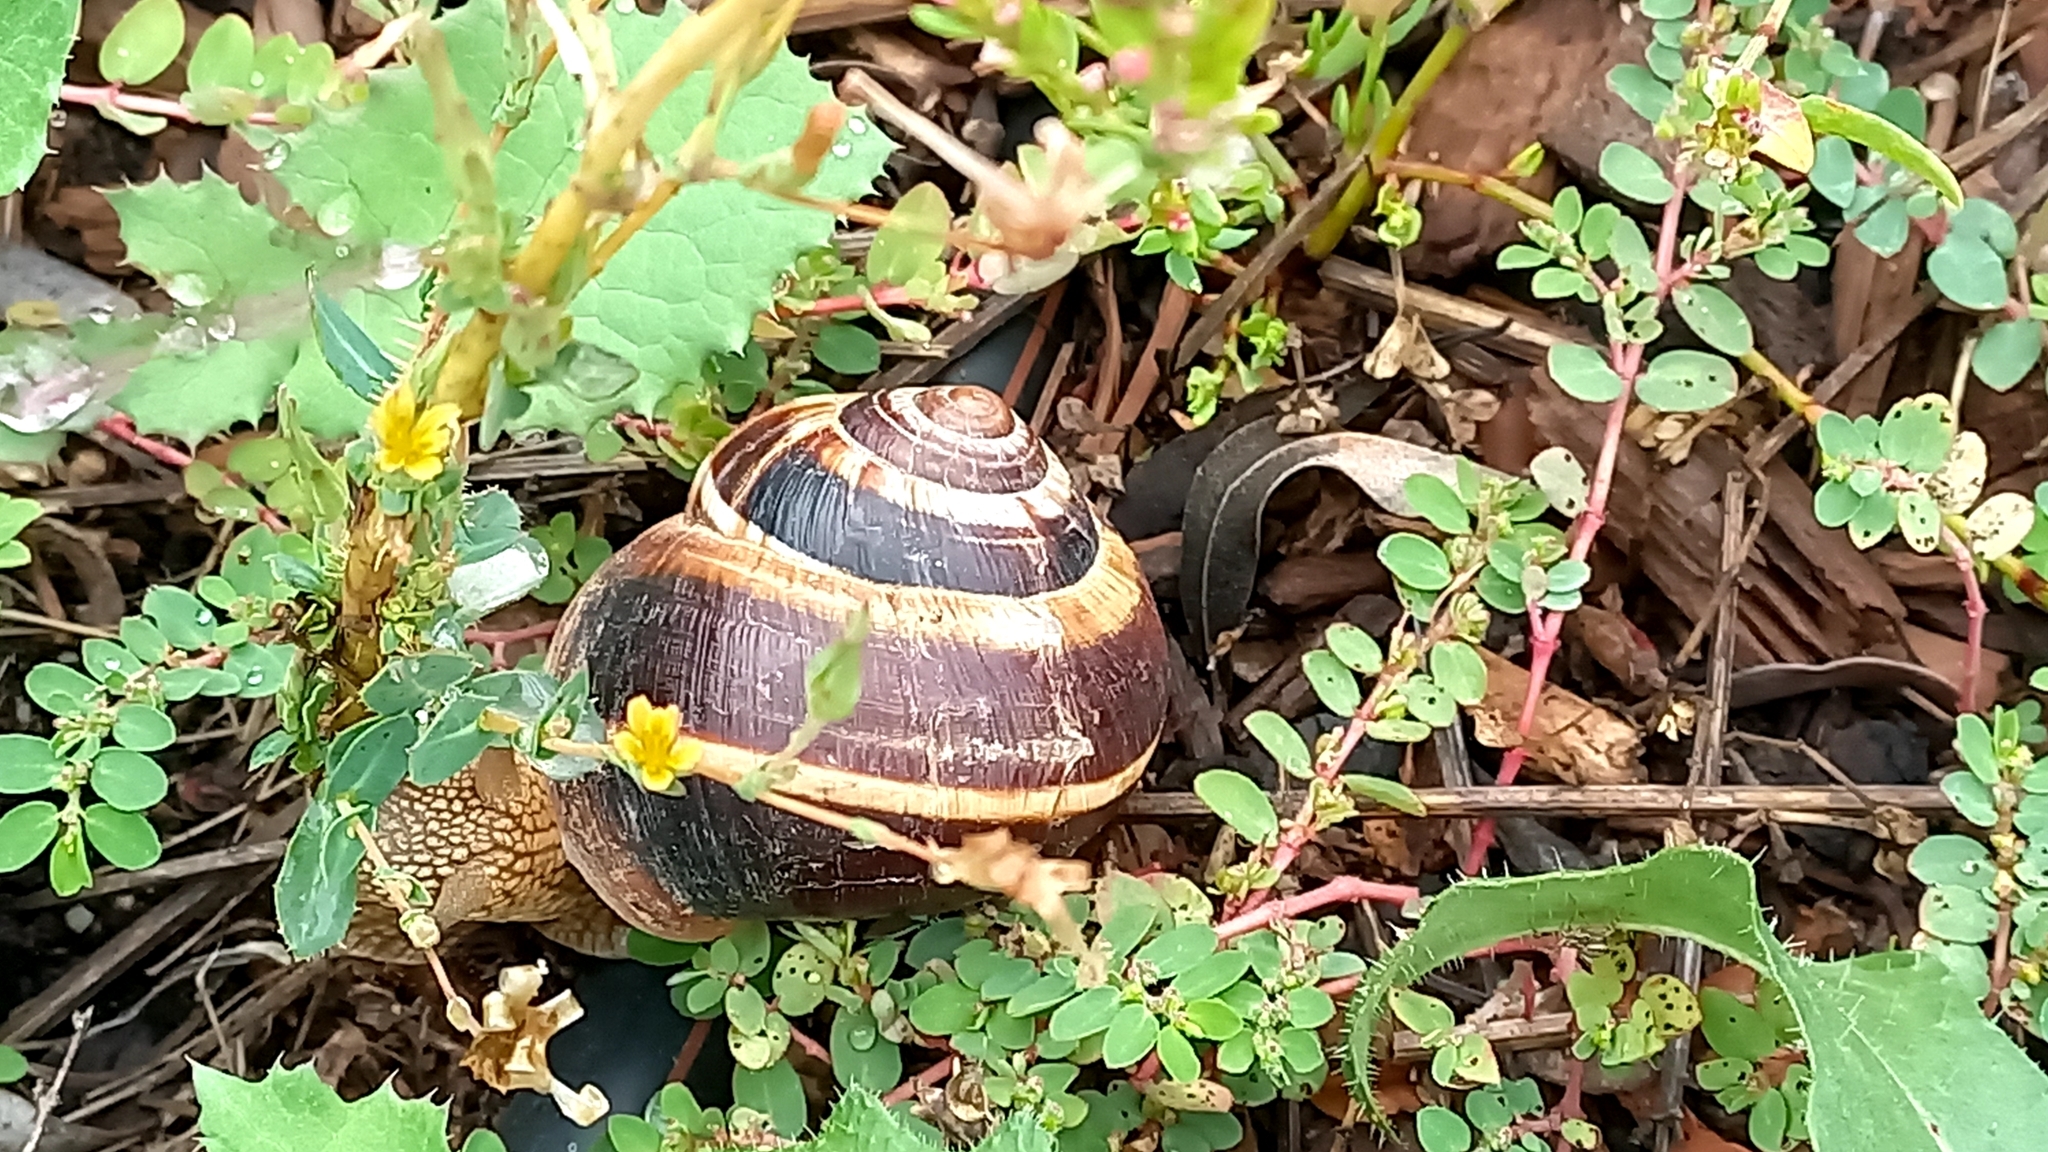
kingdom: Animalia
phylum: Mollusca
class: Gastropoda
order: Stylommatophora
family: Helicidae
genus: Helix
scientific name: Helix lucorum
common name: Turkish snail
